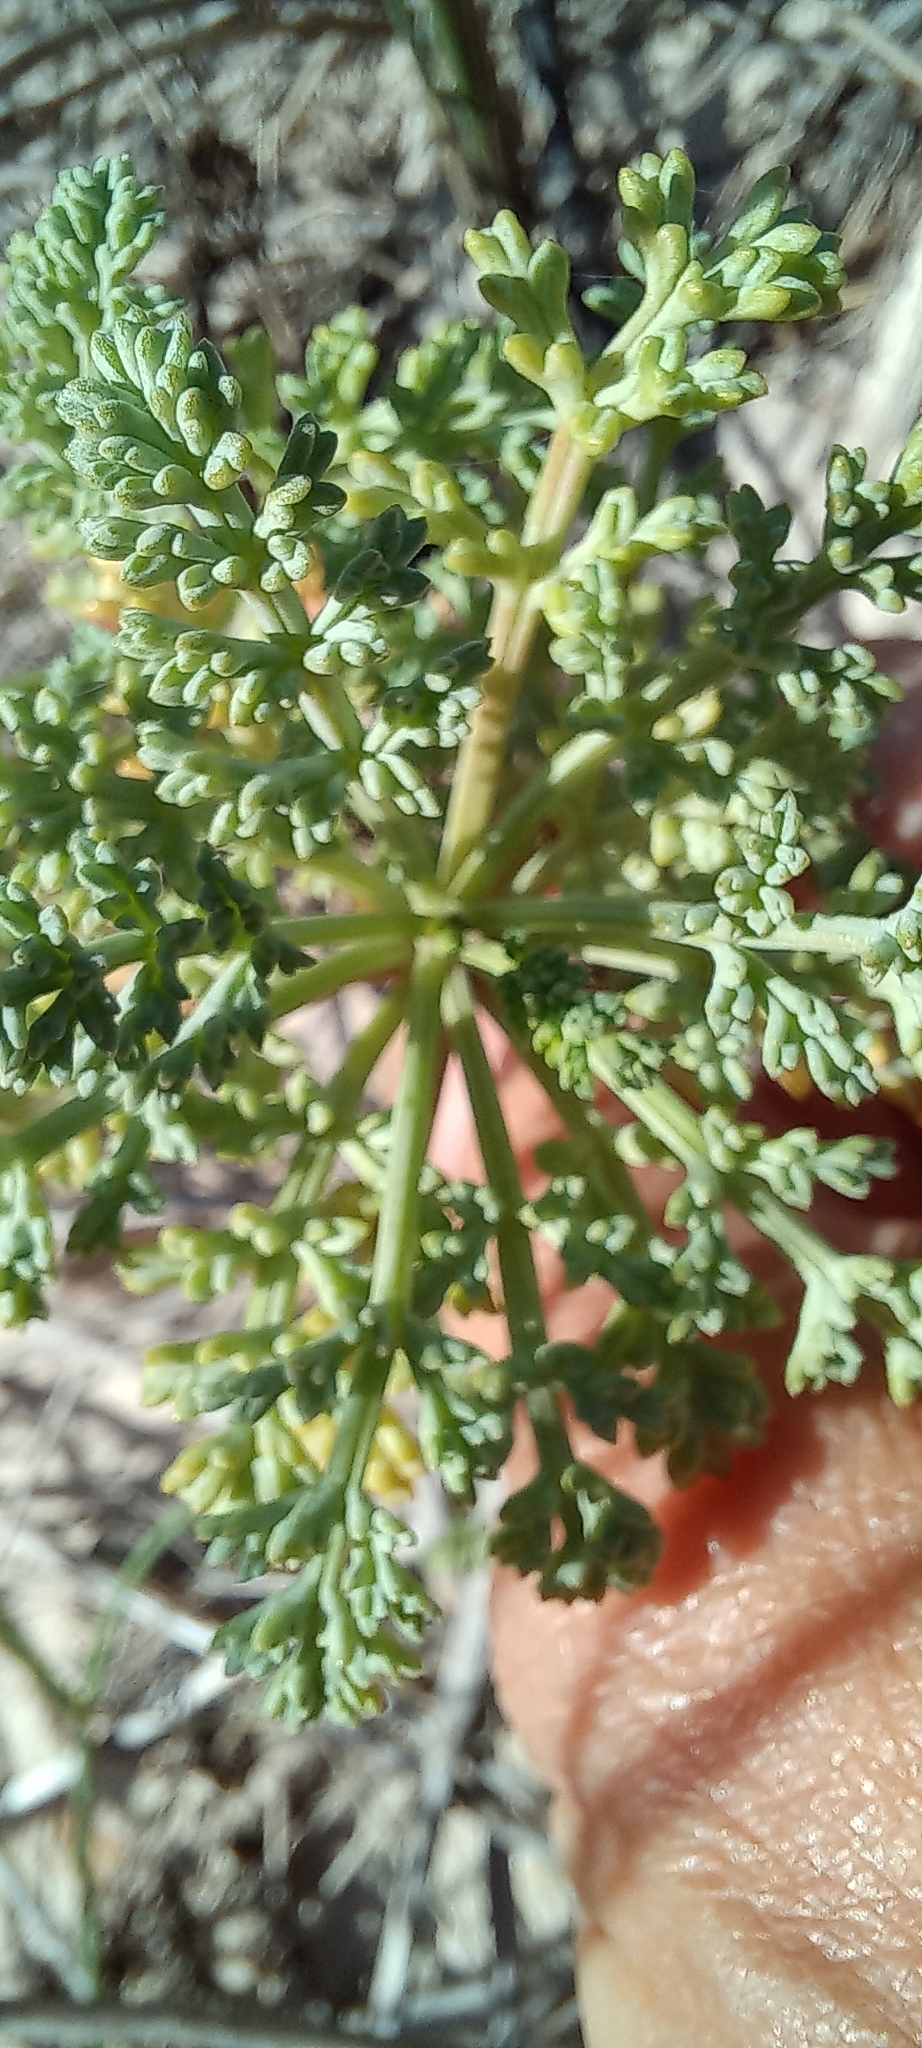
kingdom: Plantae
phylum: Tracheophyta
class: Magnoliopsida
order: Apiales
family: Apiaceae
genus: Dasispermum
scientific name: Dasispermum suffruticosum
